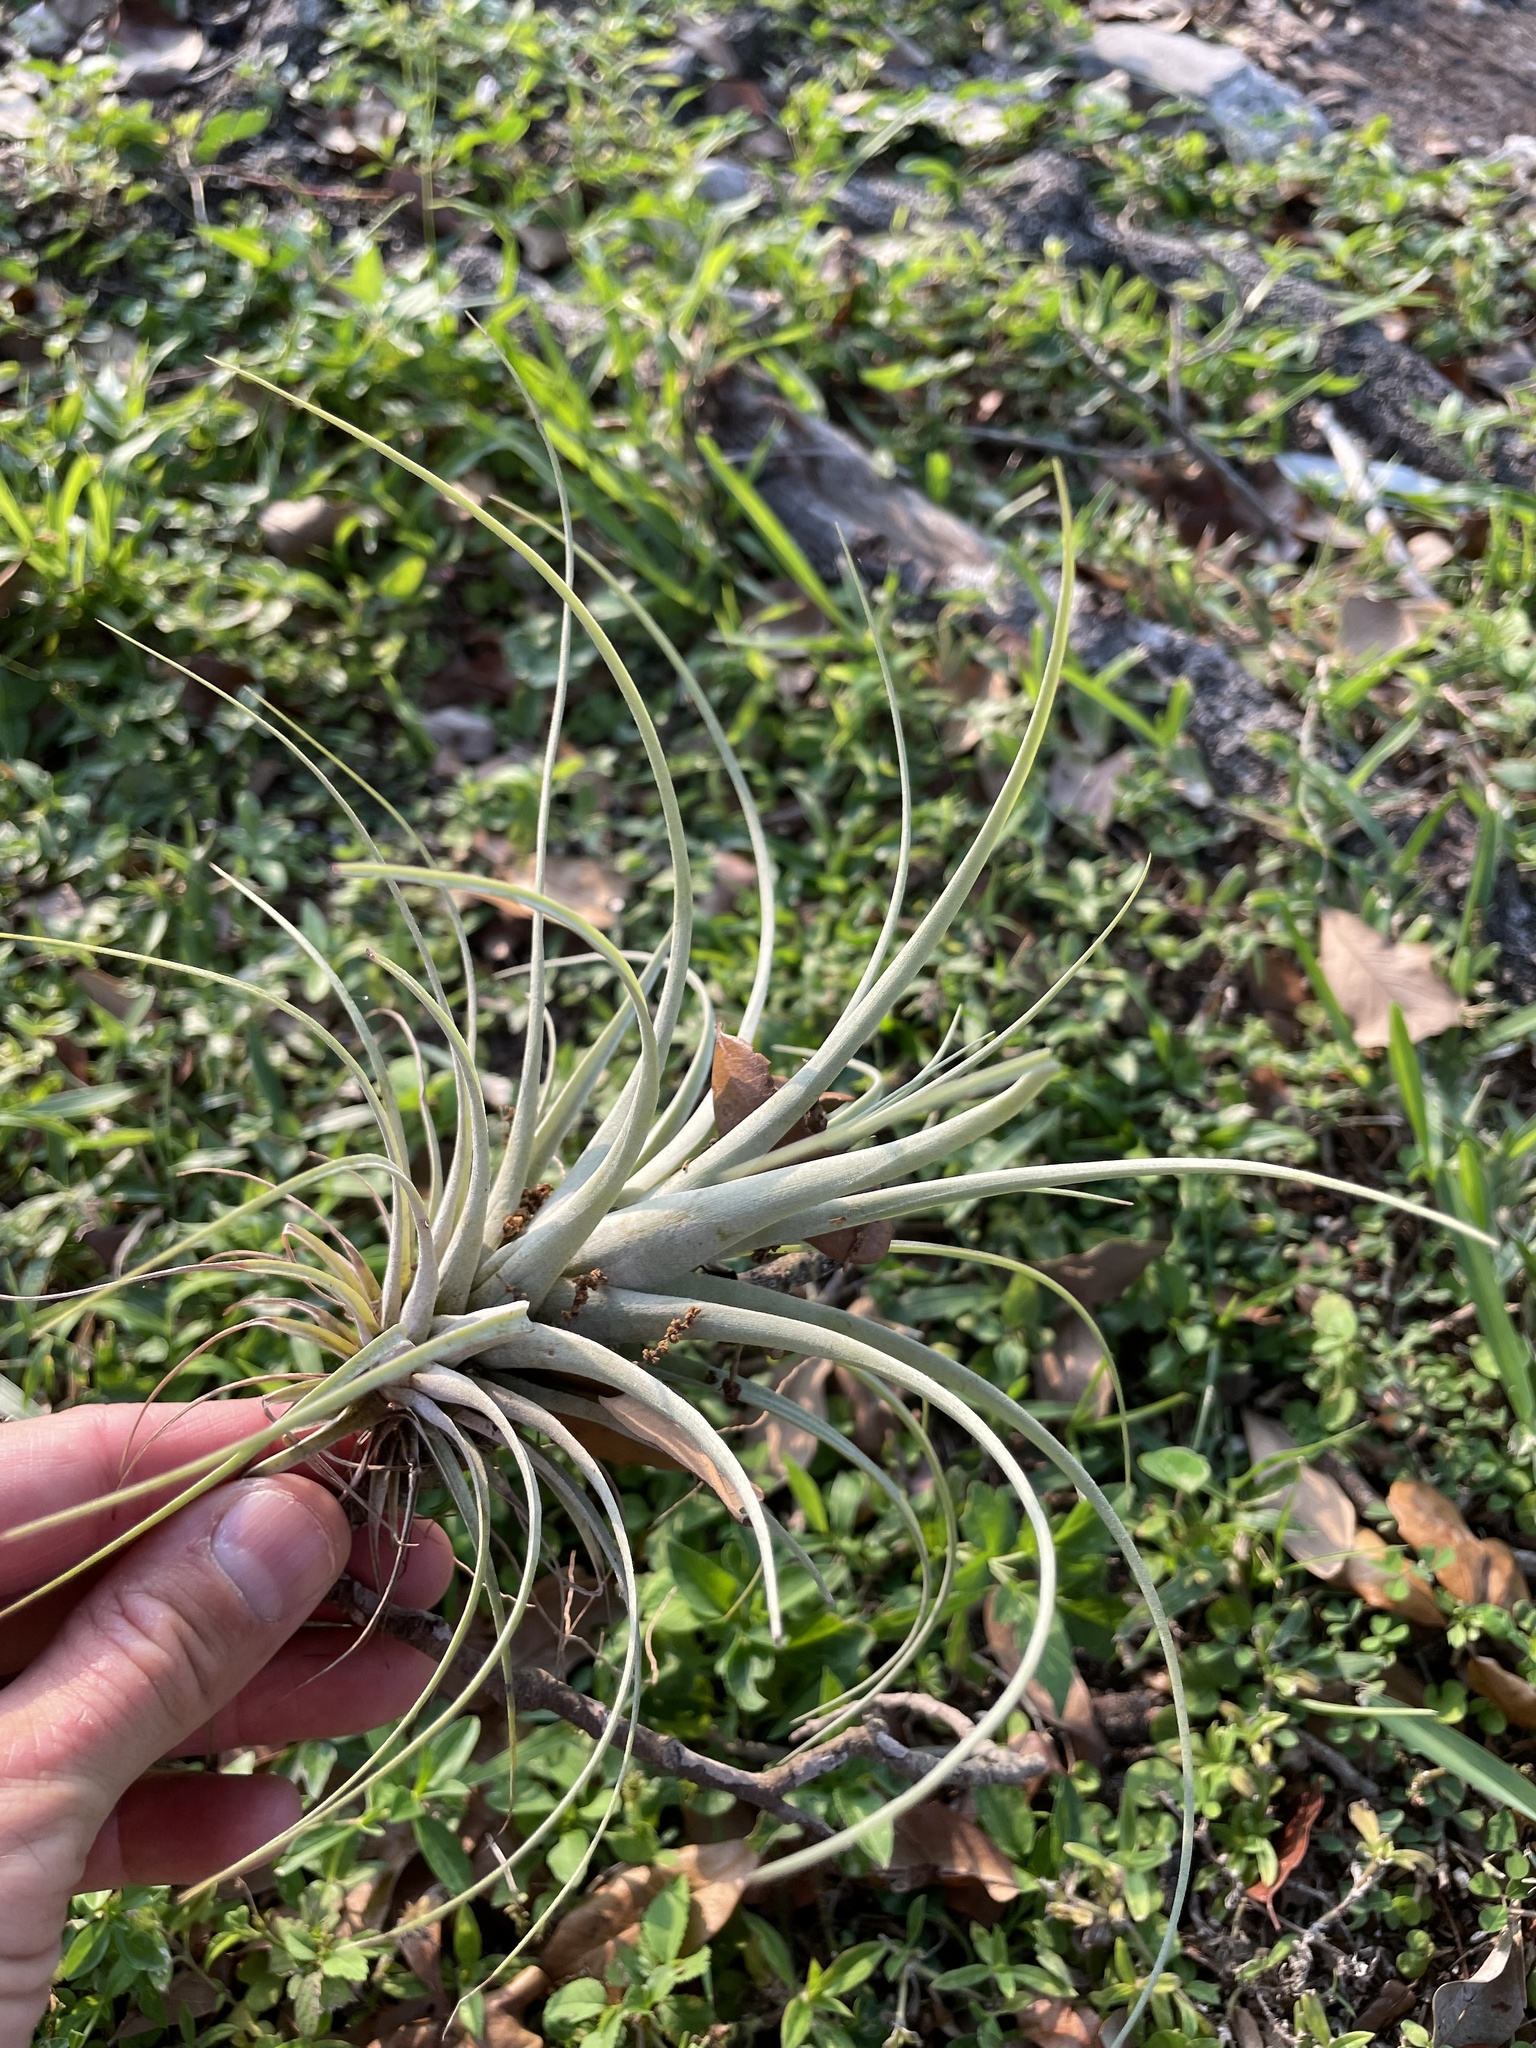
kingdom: Plantae
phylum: Tracheophyta
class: Liliopsida
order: Poales
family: Bromeliaceae
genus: Tillandsia
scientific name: Tillandsia fasciculata
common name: Giant airplant
